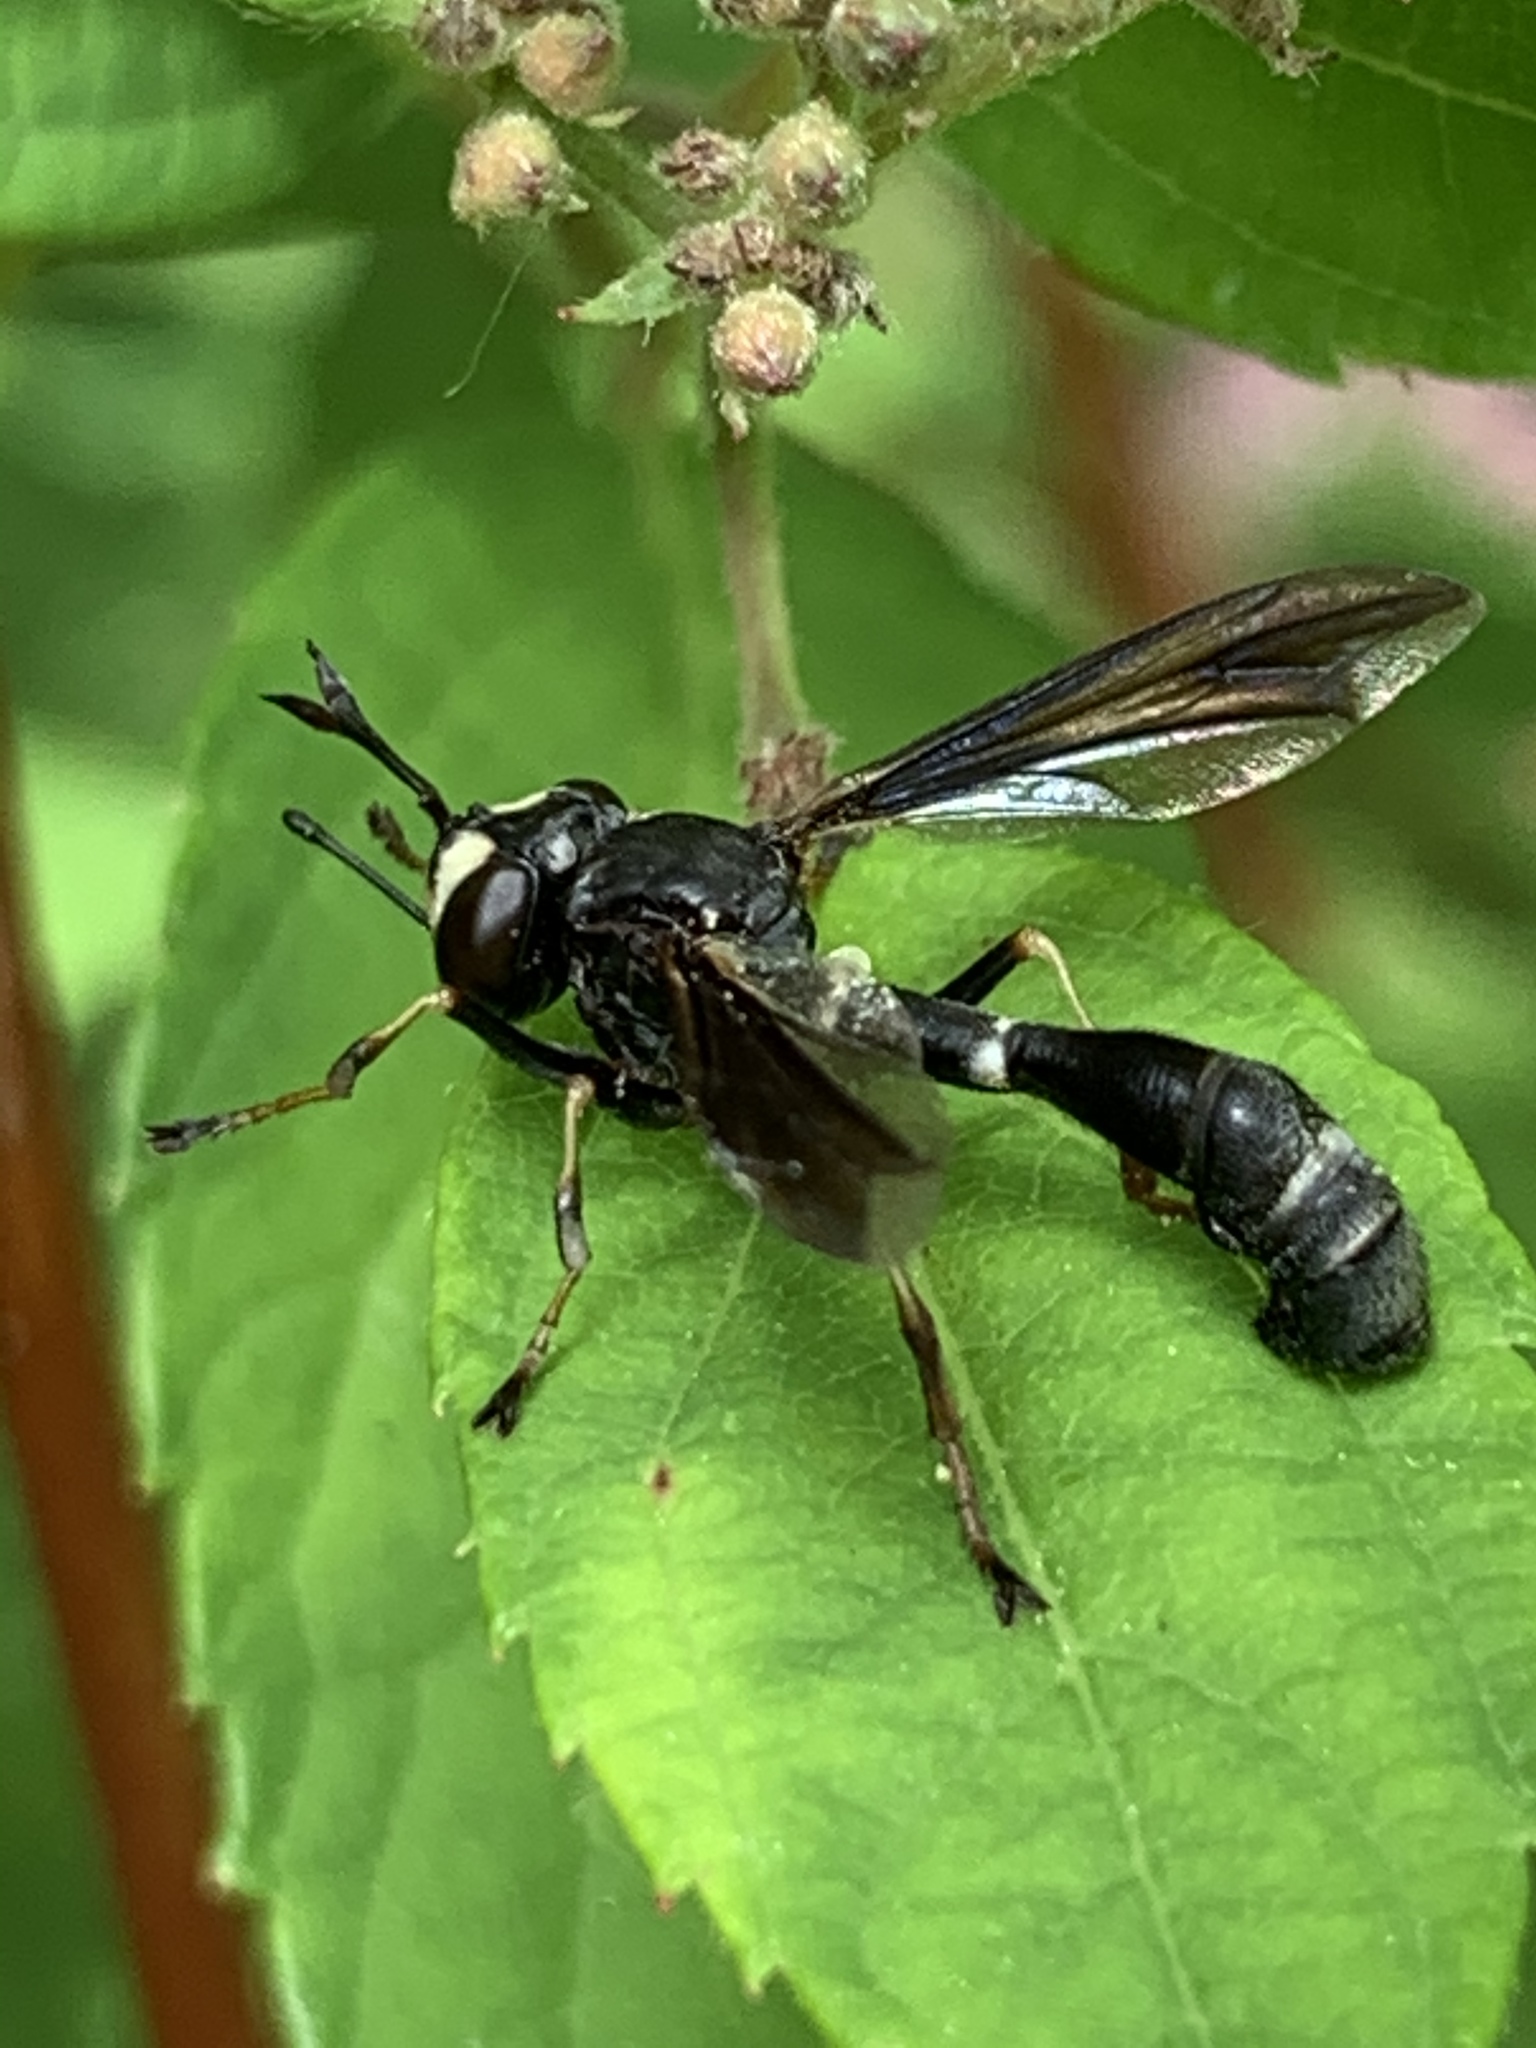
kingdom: Animalia
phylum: Arthropoda
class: Insecta
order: Diptera
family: Conopidae
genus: Physocephala
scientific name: Physocephala tibialis
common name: Common eastern physocephala
